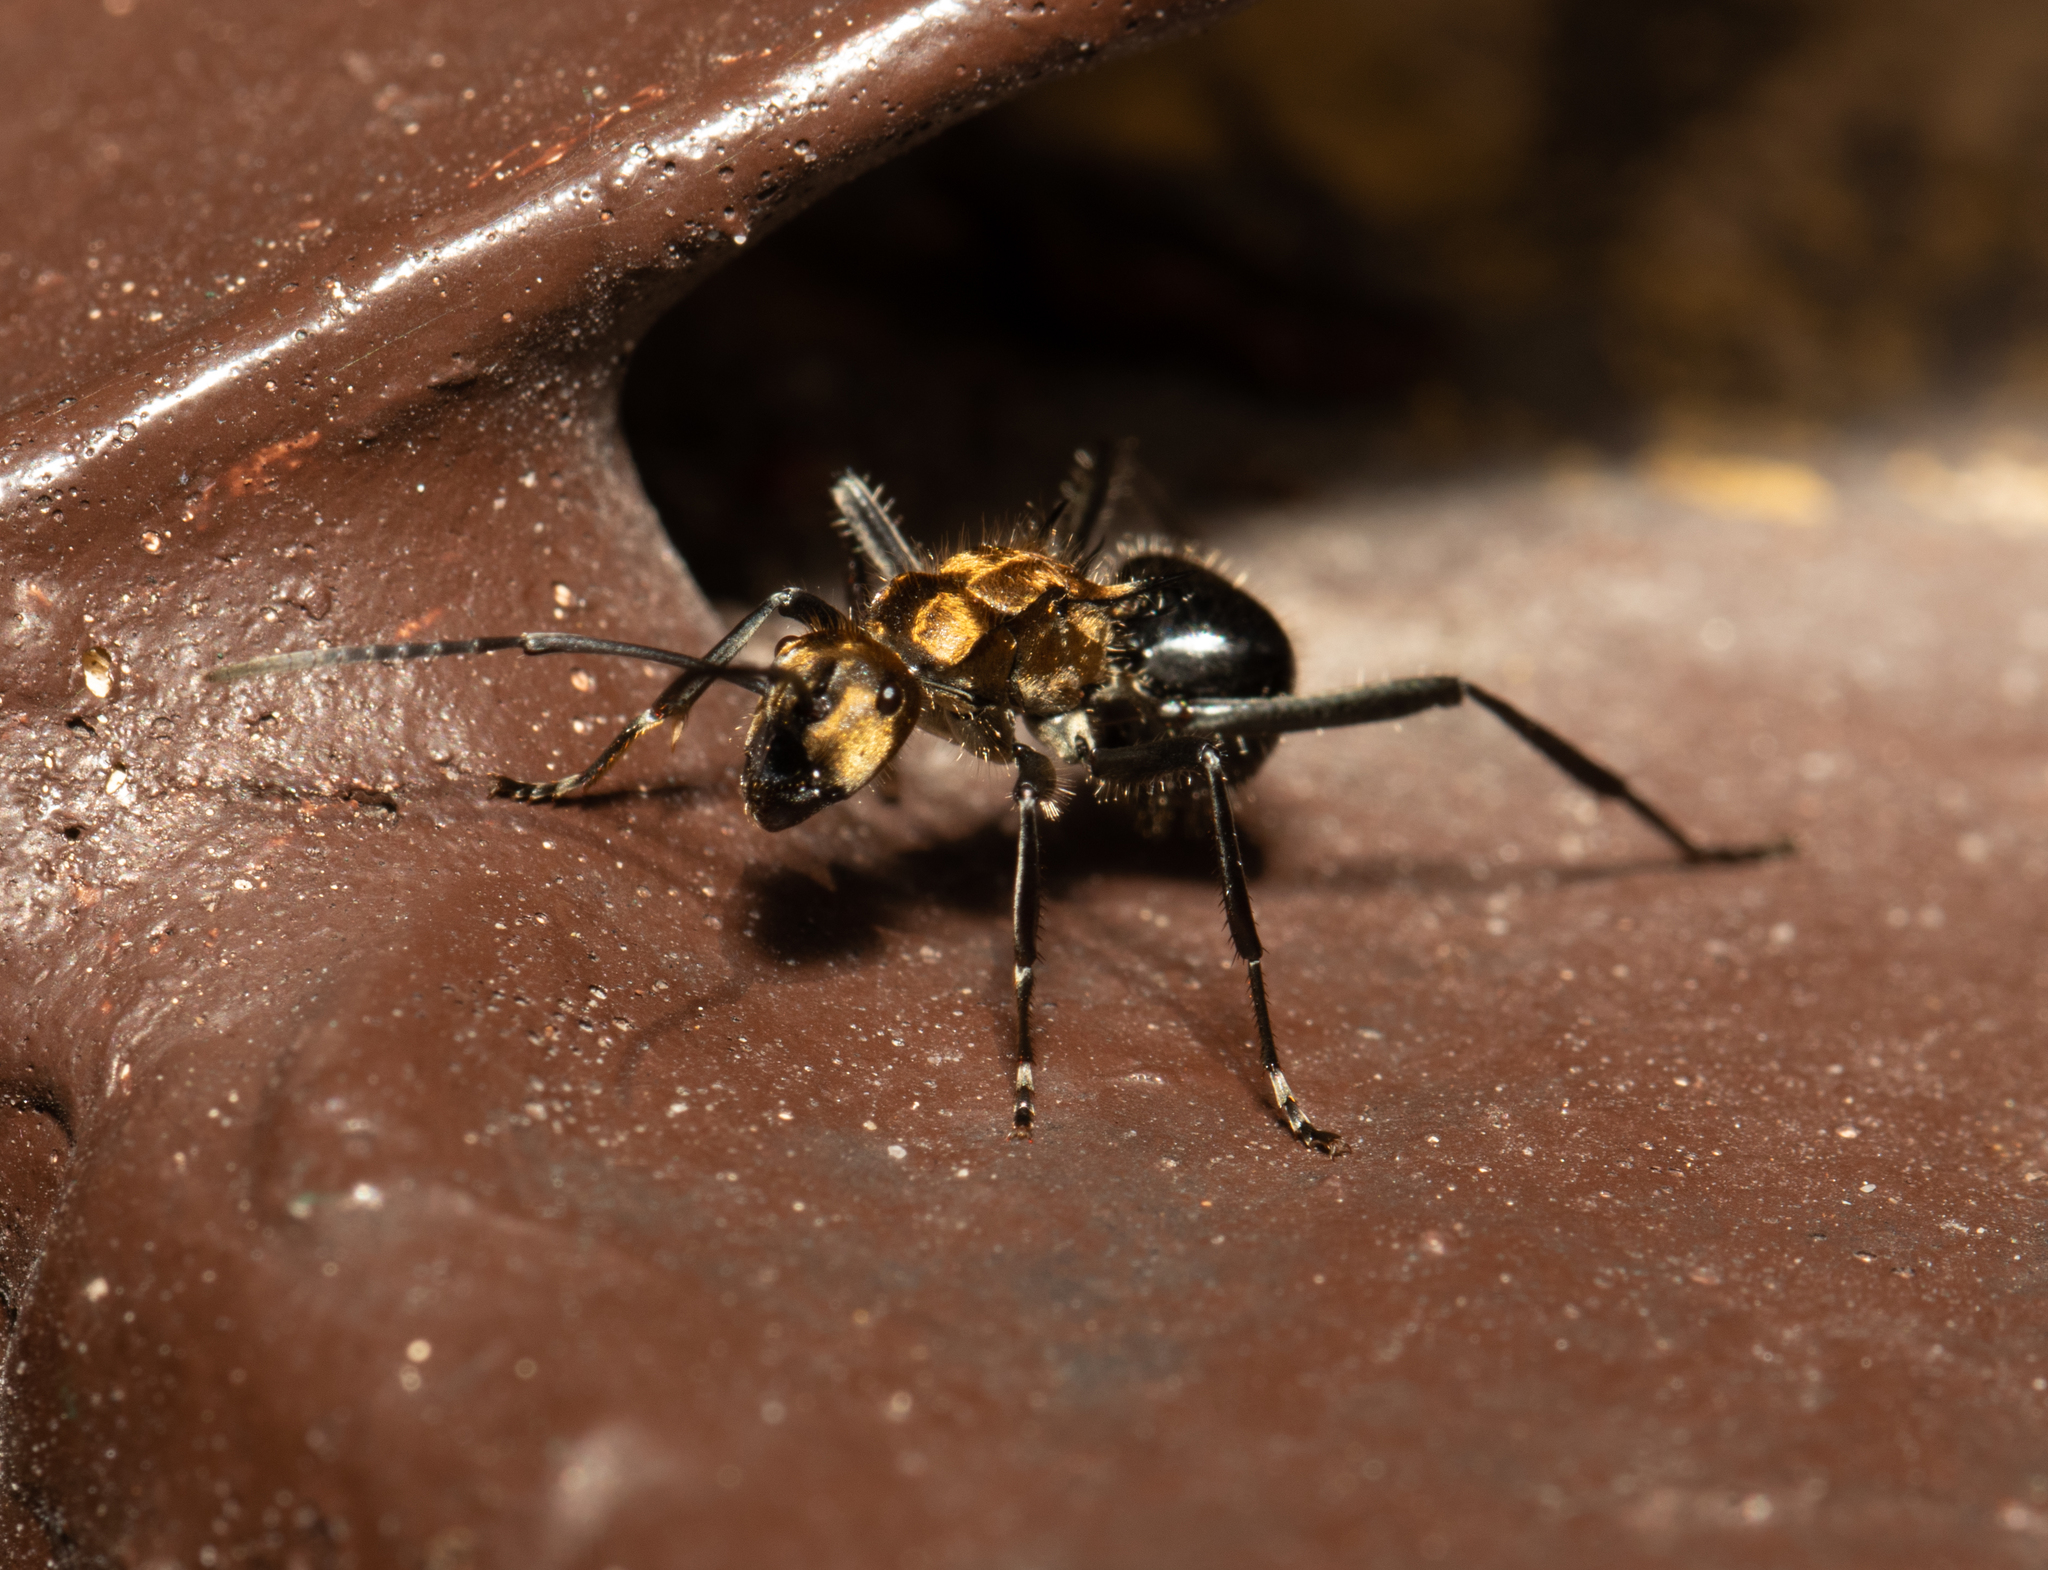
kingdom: Animalia
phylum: Arthropoda
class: Insecta
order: Hymenoptera
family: Formicidae
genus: Polyrhachis
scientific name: Polyrhachis semiaurata
